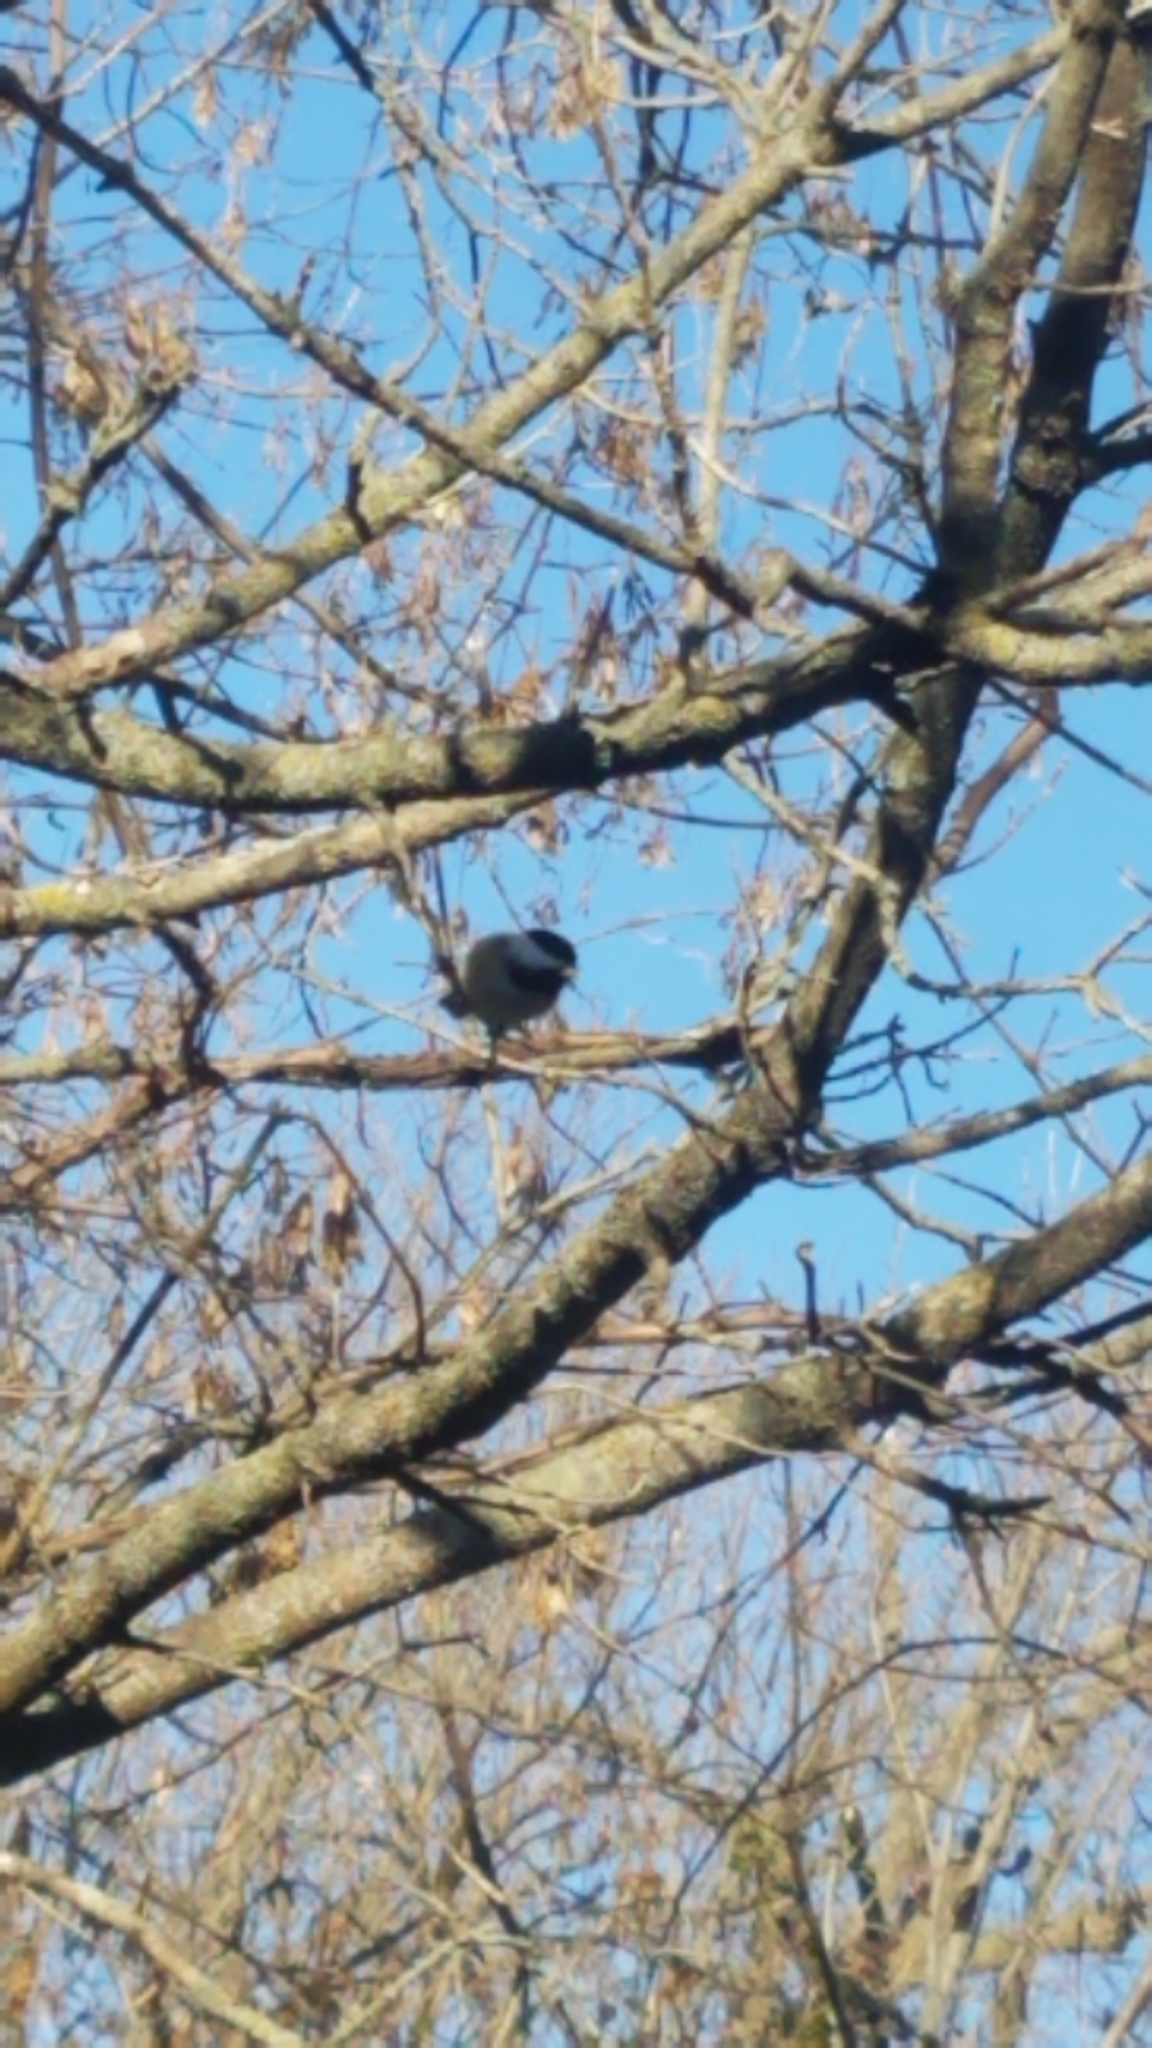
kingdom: Animalia
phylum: Chordata
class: Aves
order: Passeriformes
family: Paridae
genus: Poecile
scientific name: Poecile atricapillus
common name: Black-capped chickadee
